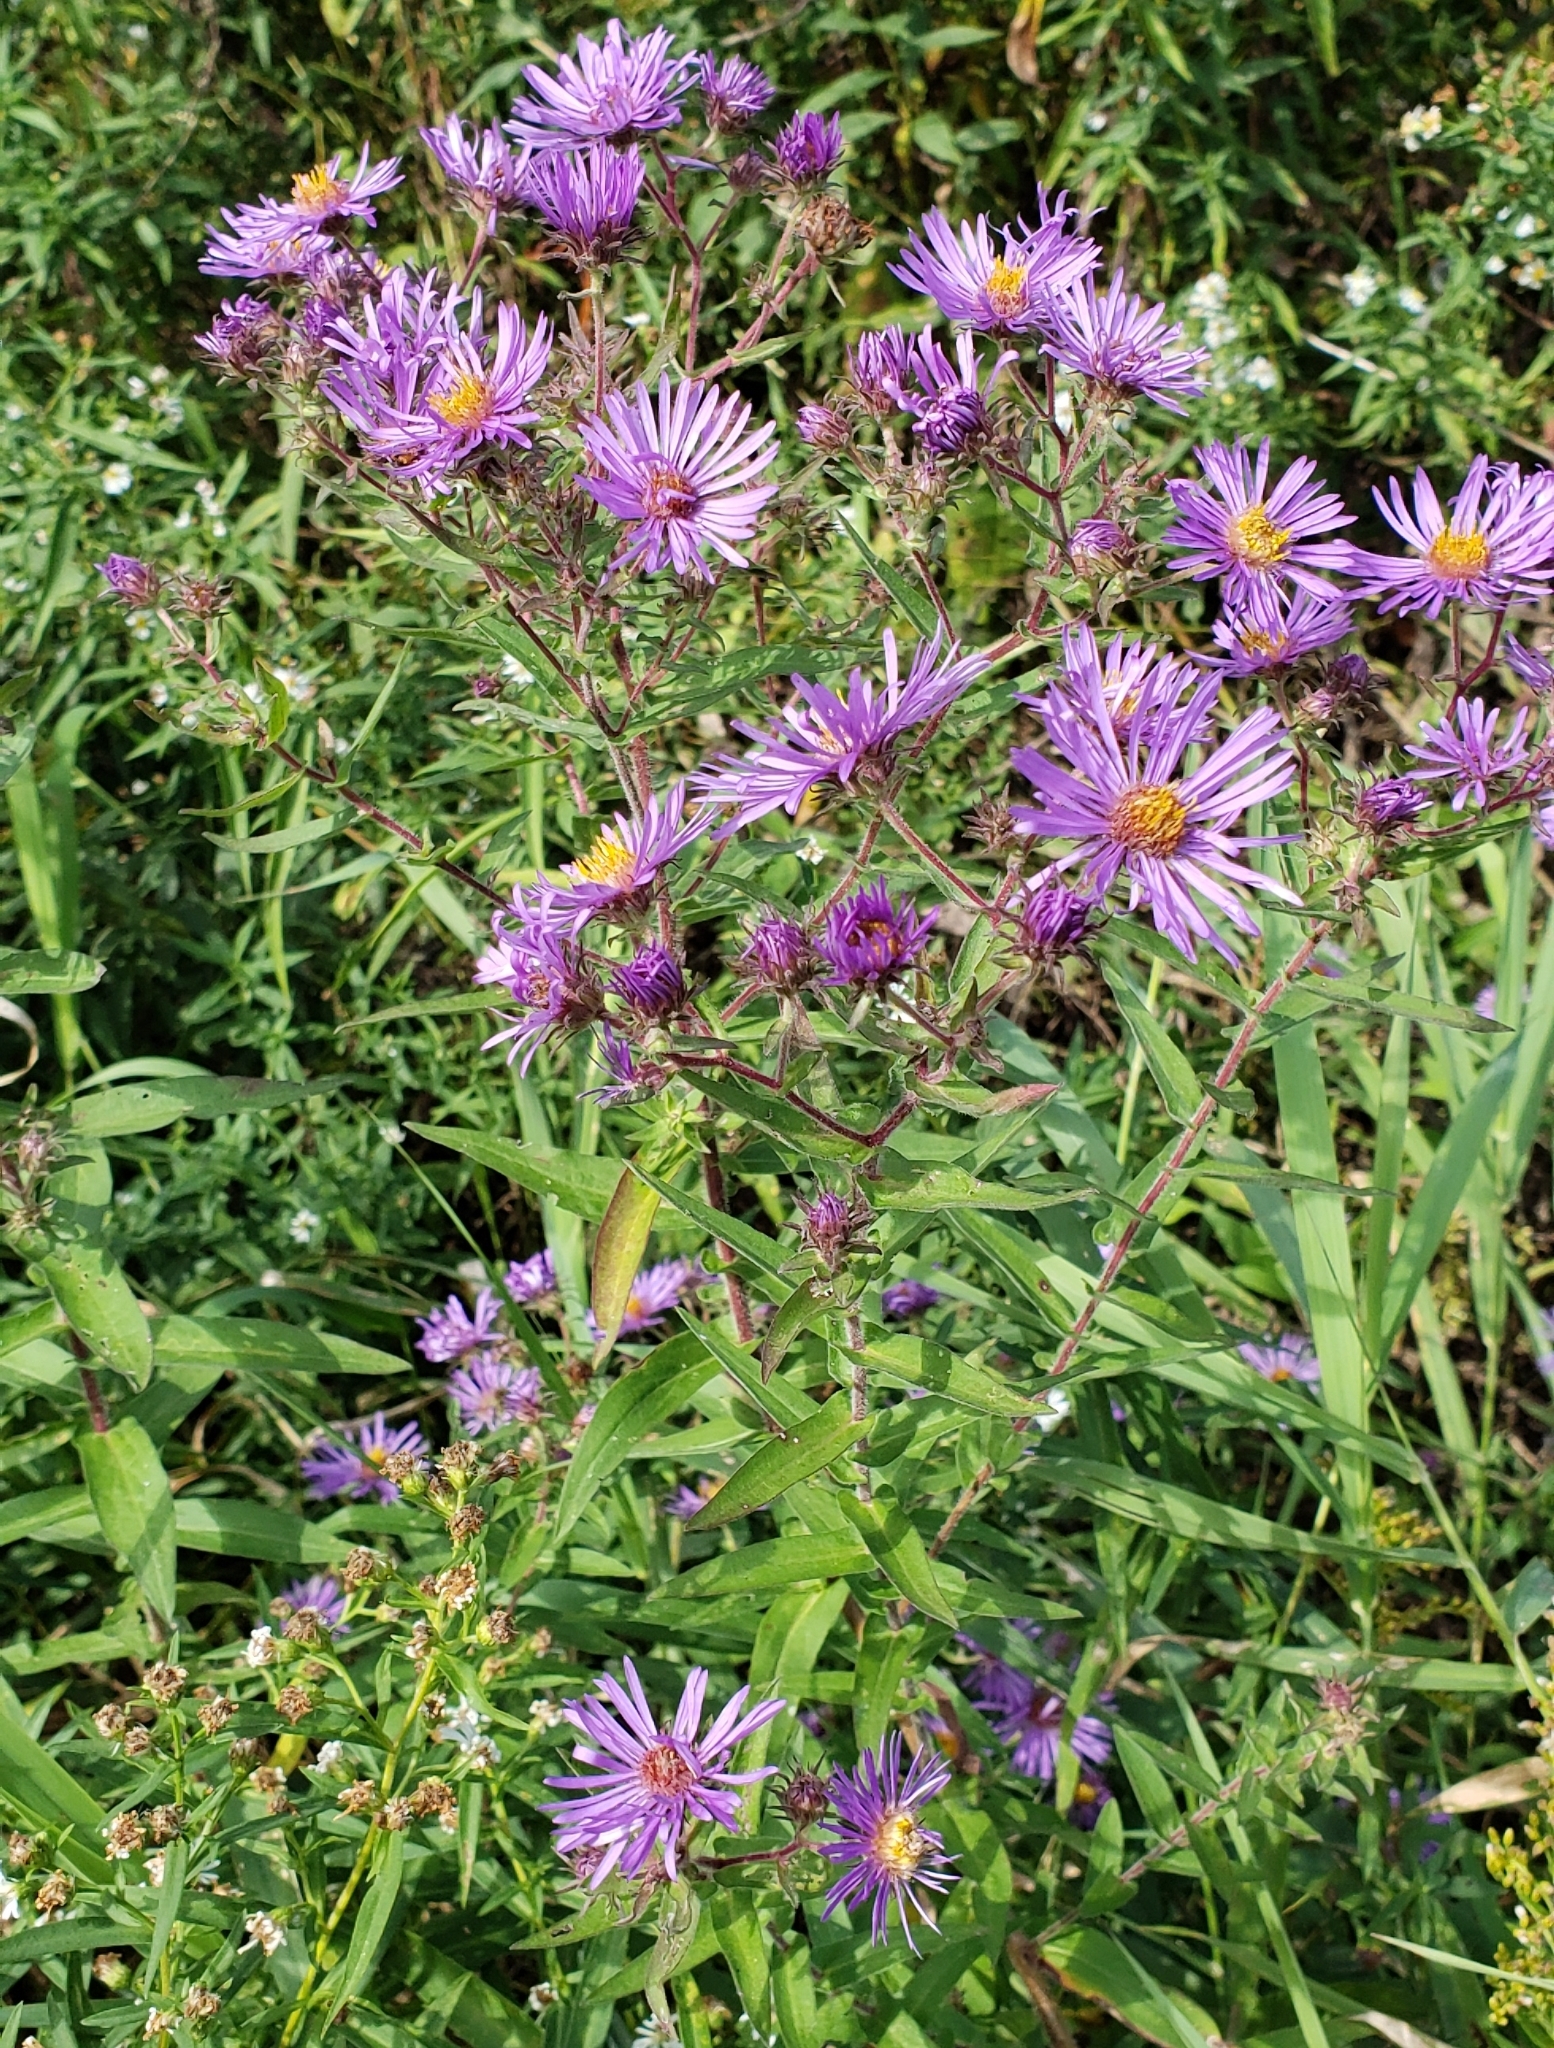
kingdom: Plantae
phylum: Tracheophyta
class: Magnoliopsida
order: Asterales
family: Asteraceae
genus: Symphyotrichum
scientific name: Symphyotrichum novae-angliae
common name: Michaelmas daisy
